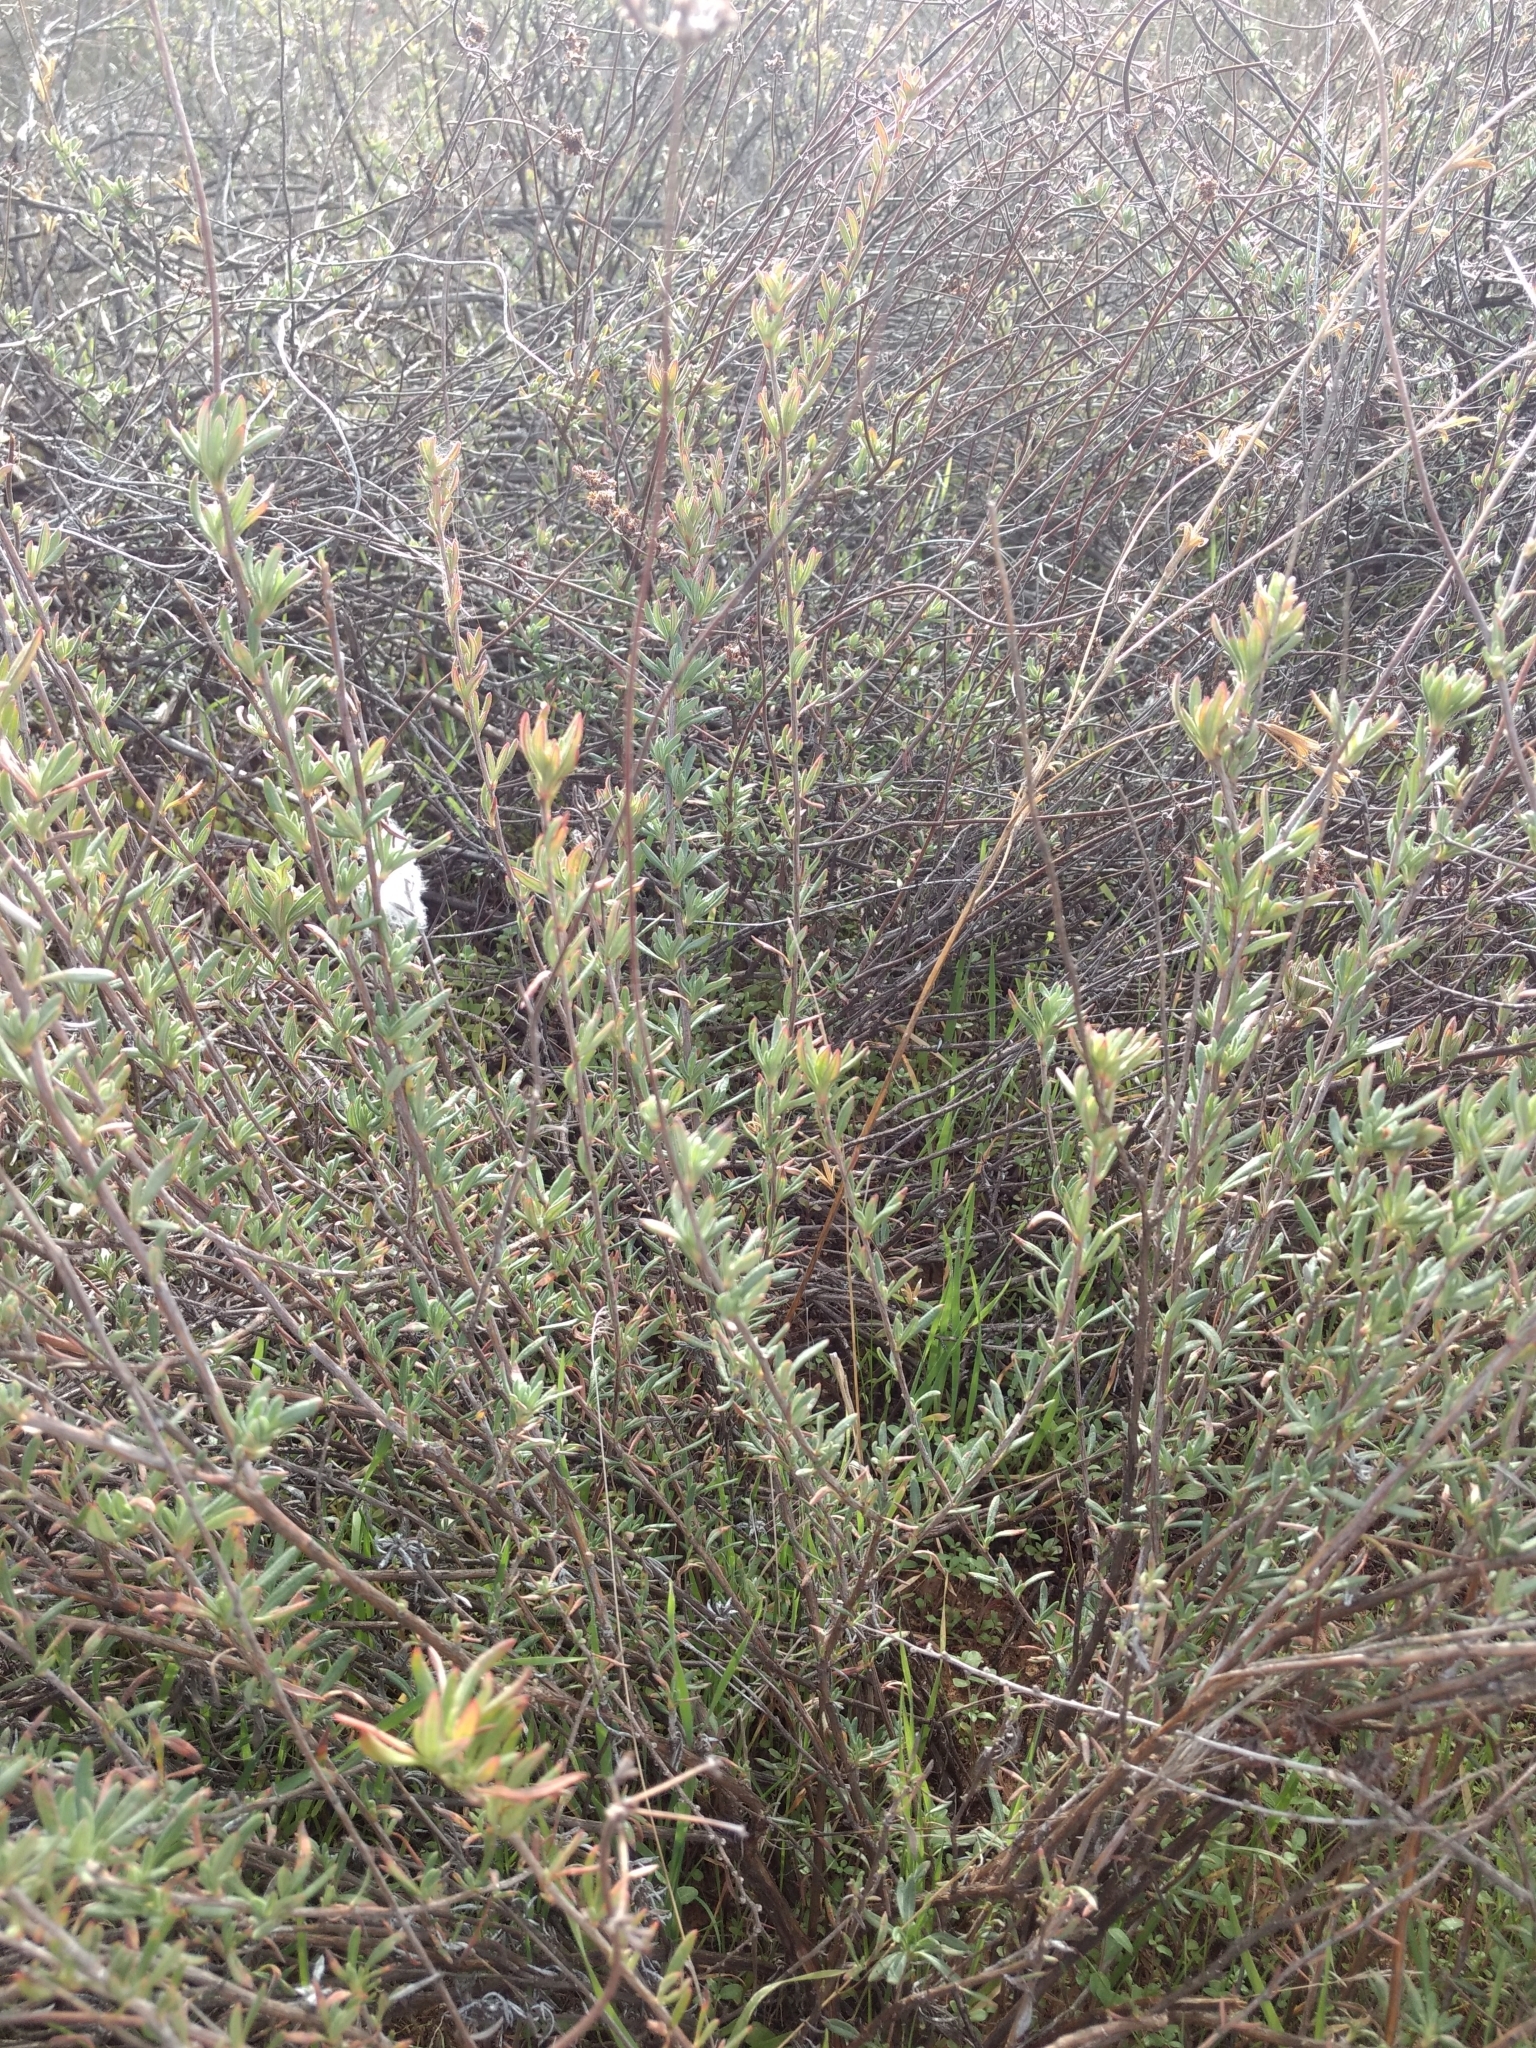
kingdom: Plantae
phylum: Tracheophyta
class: Magnoliopsida
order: Caryophyllales
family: Polygonaceae
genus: Eriogonum
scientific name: Eriogonum fasciculatum
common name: California wild buckwheat
